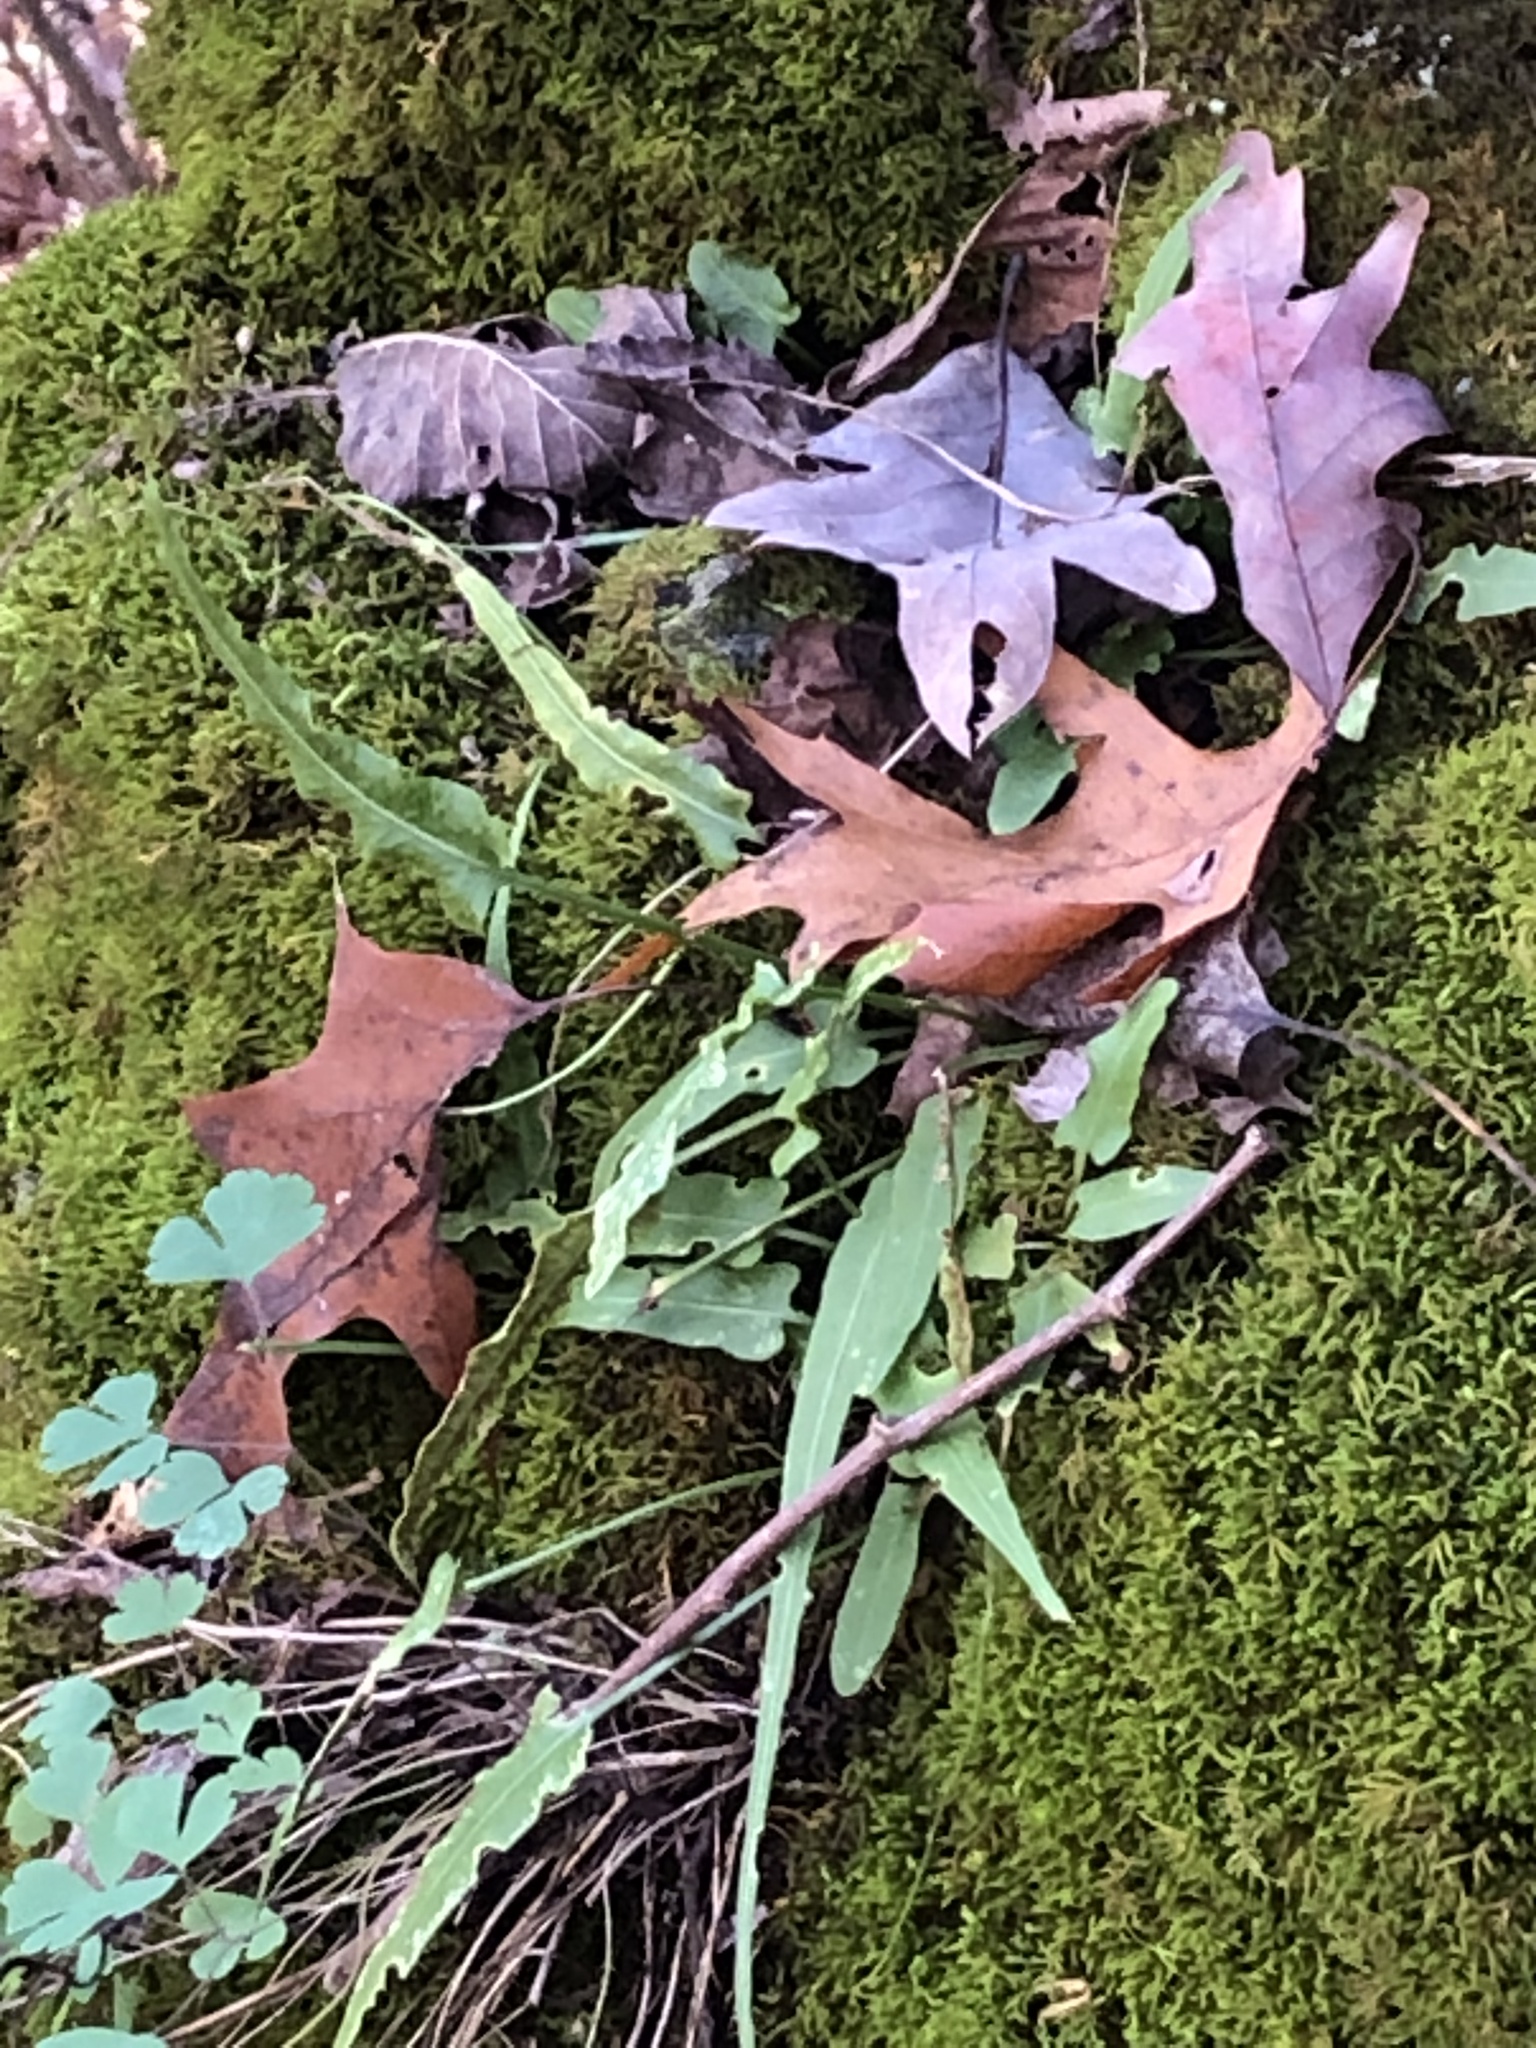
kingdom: Plantae
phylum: Tracheophyta
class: Polypodiopsida
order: Polypodiales
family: Aspleniaceae
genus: Asplenium
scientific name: Asplenium rhizophyllum
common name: Walking fern
